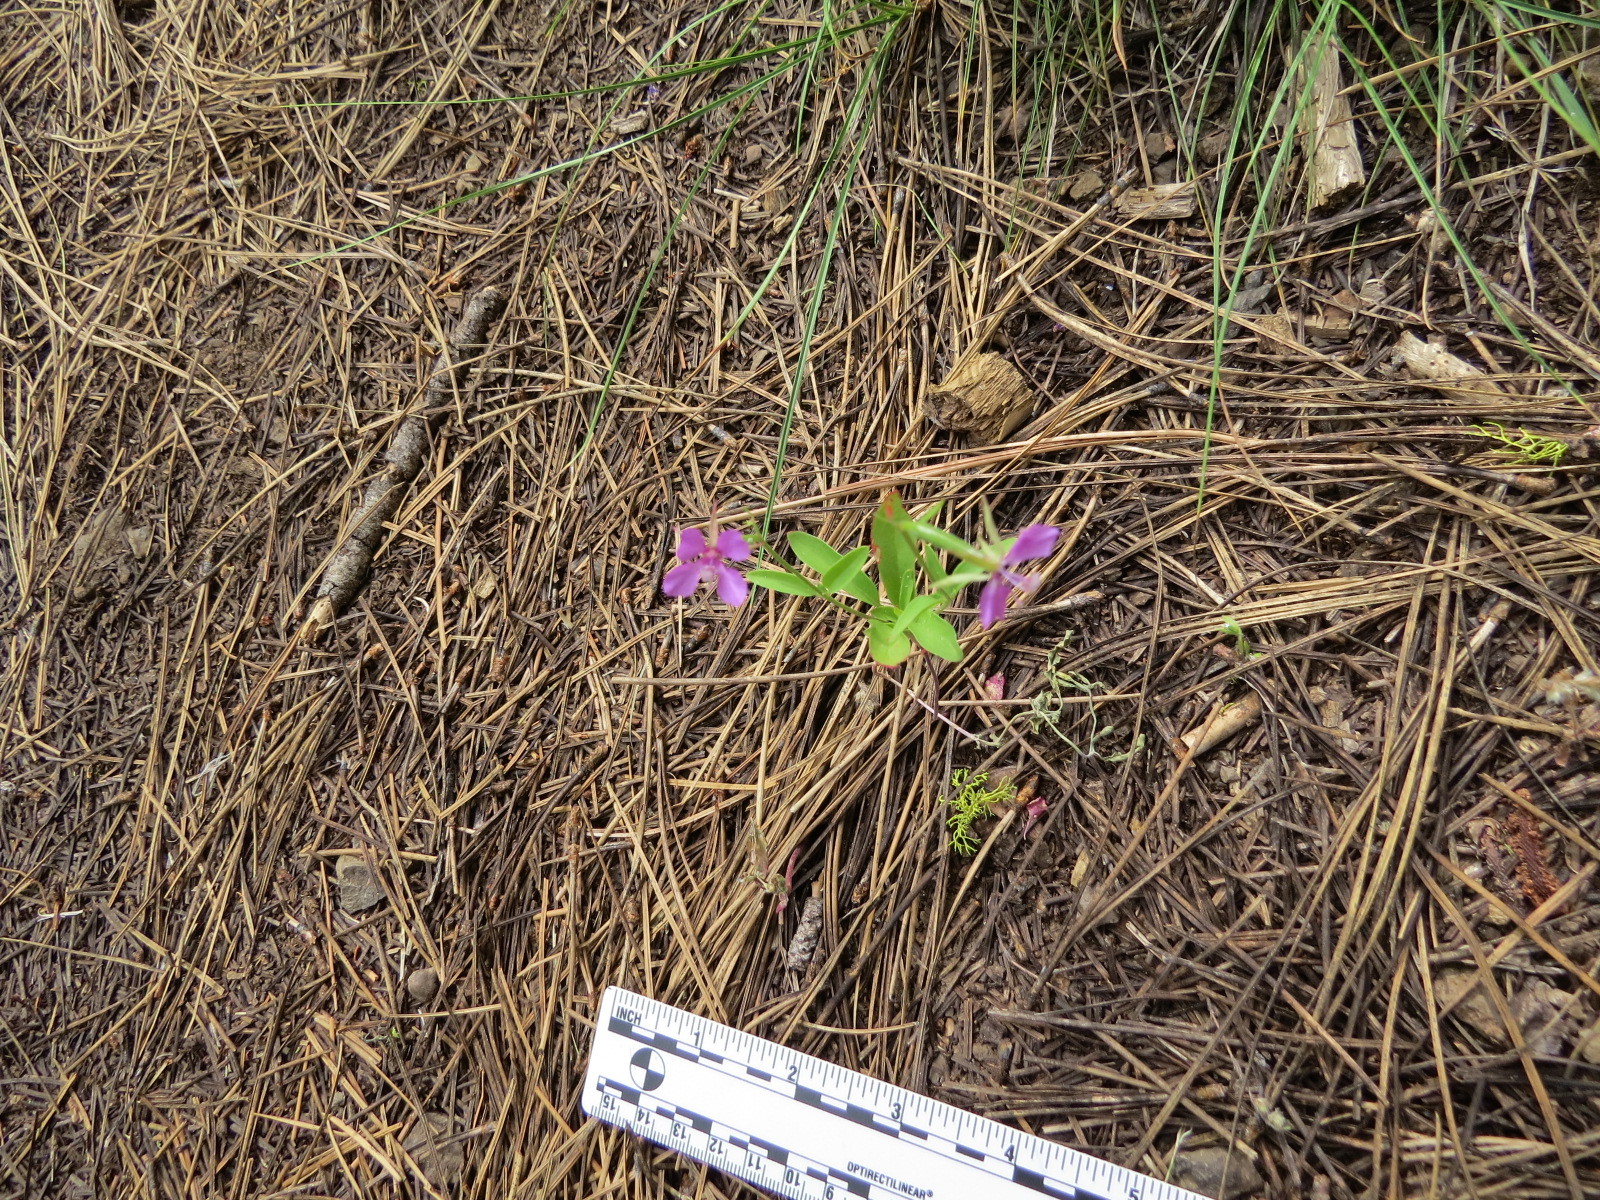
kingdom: Plantae
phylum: Tracheophyta
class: Magnoliopsida
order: Myrtales
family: Onagraceae
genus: Clarkia
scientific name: Clarkia rhomboidea
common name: Broadleaf clarkia
